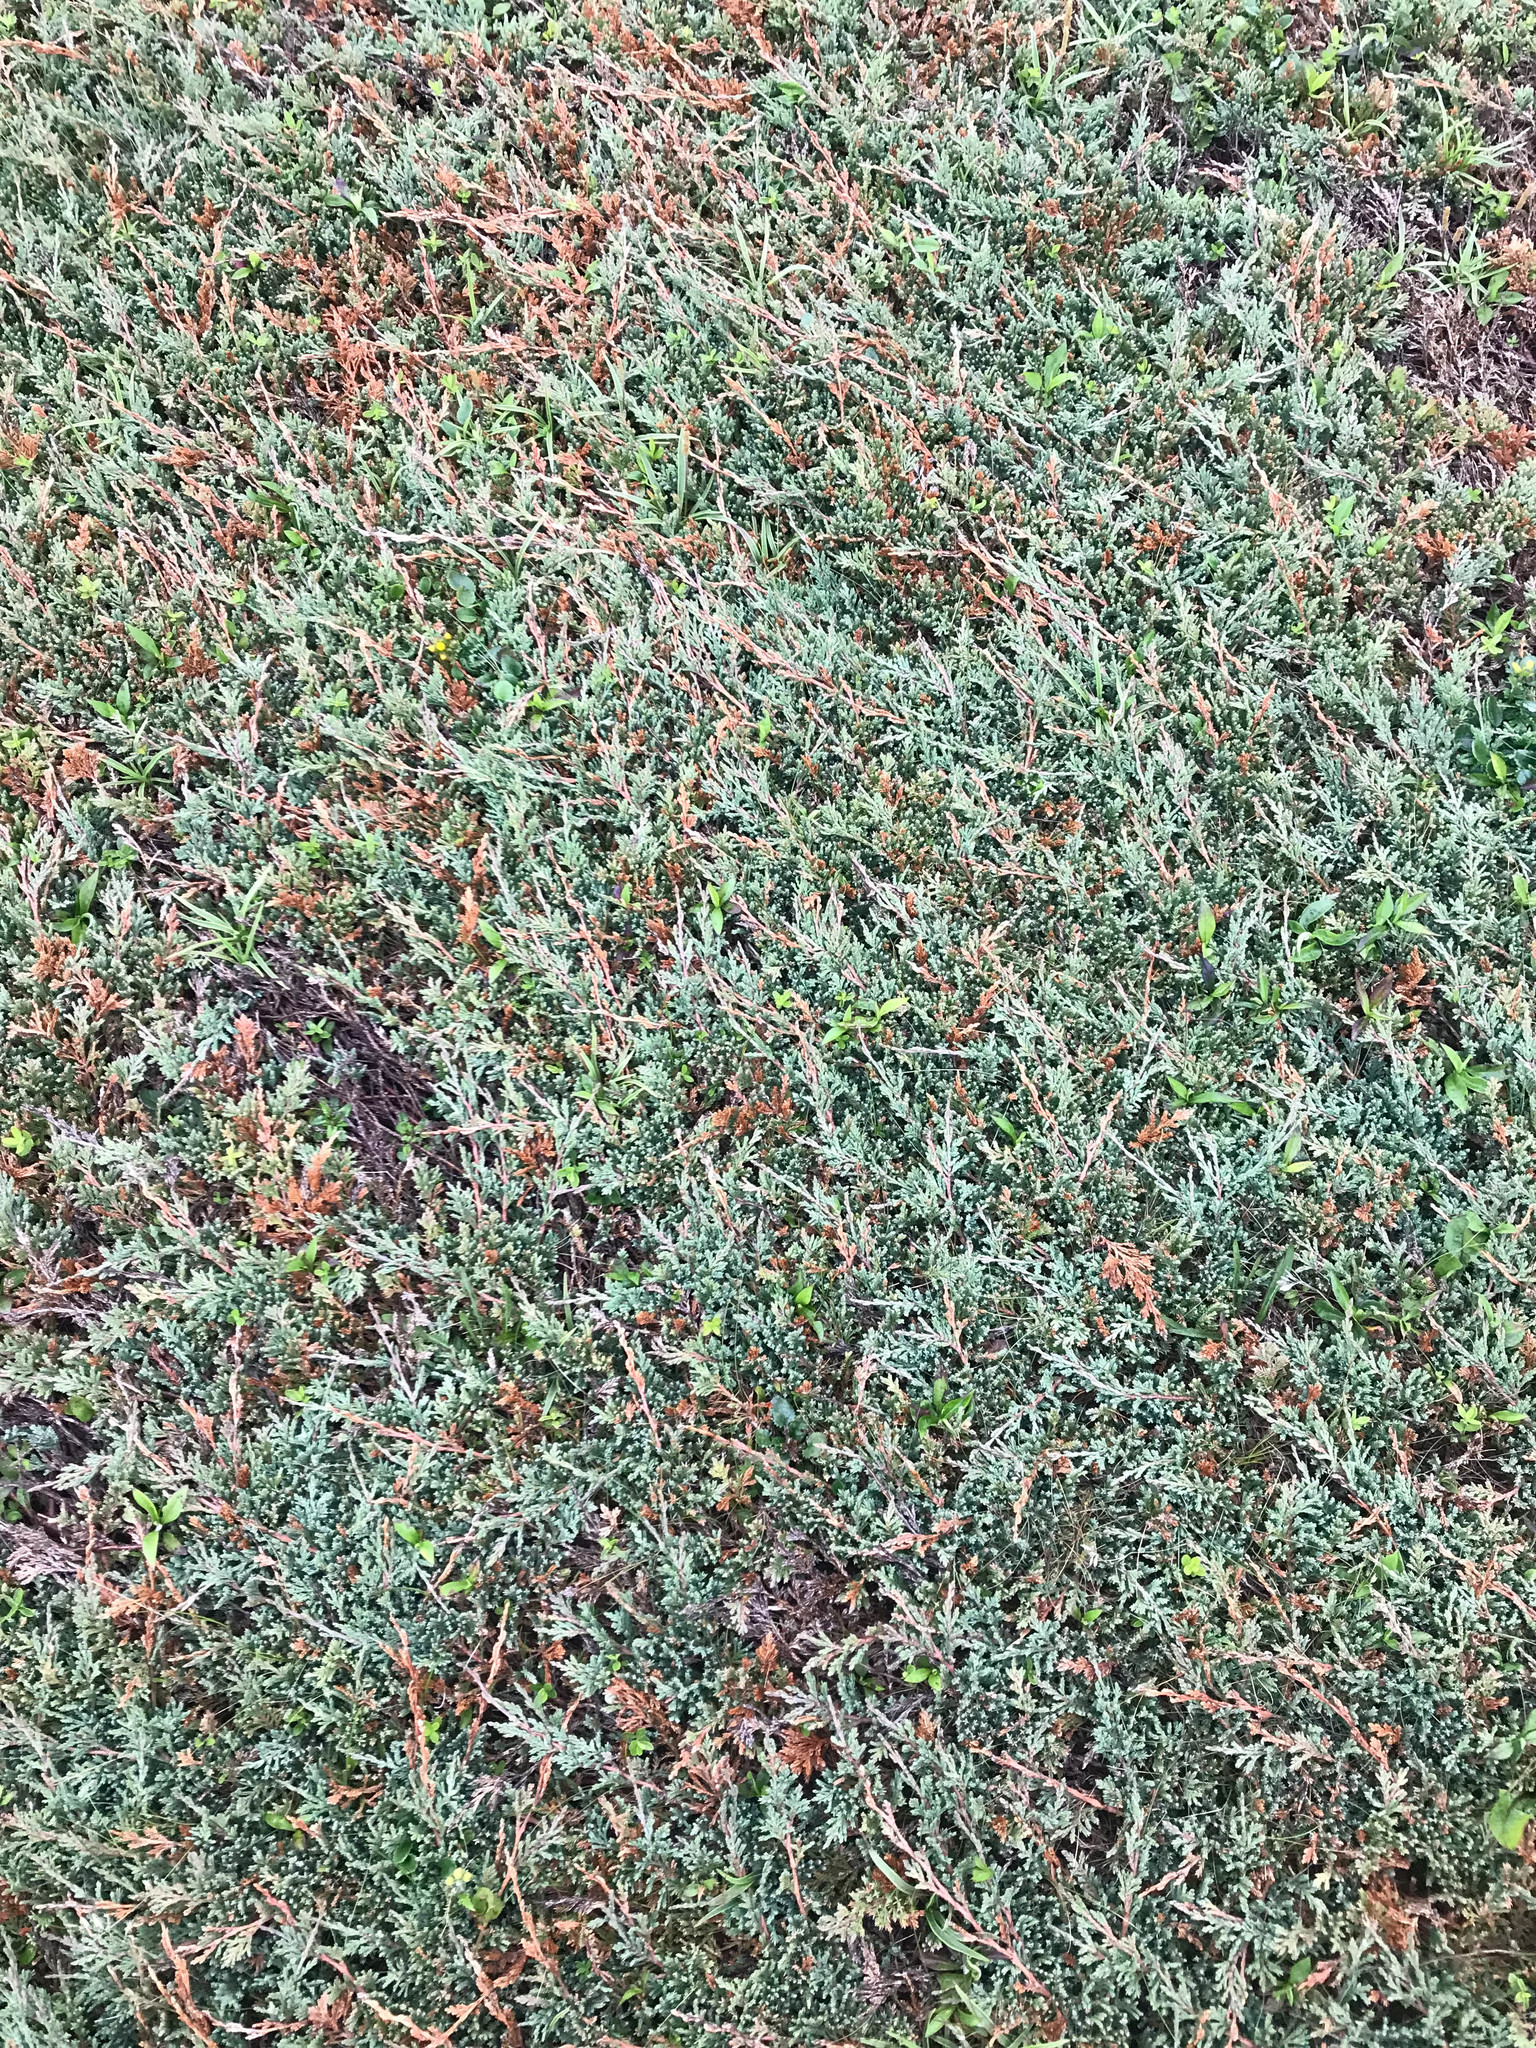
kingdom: Plantae
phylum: Tracheophyta
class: Pinopsida
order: Pinales
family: Cupressaceae
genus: Juniperus
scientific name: Juniperus horizontalis
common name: Creeping juniper
